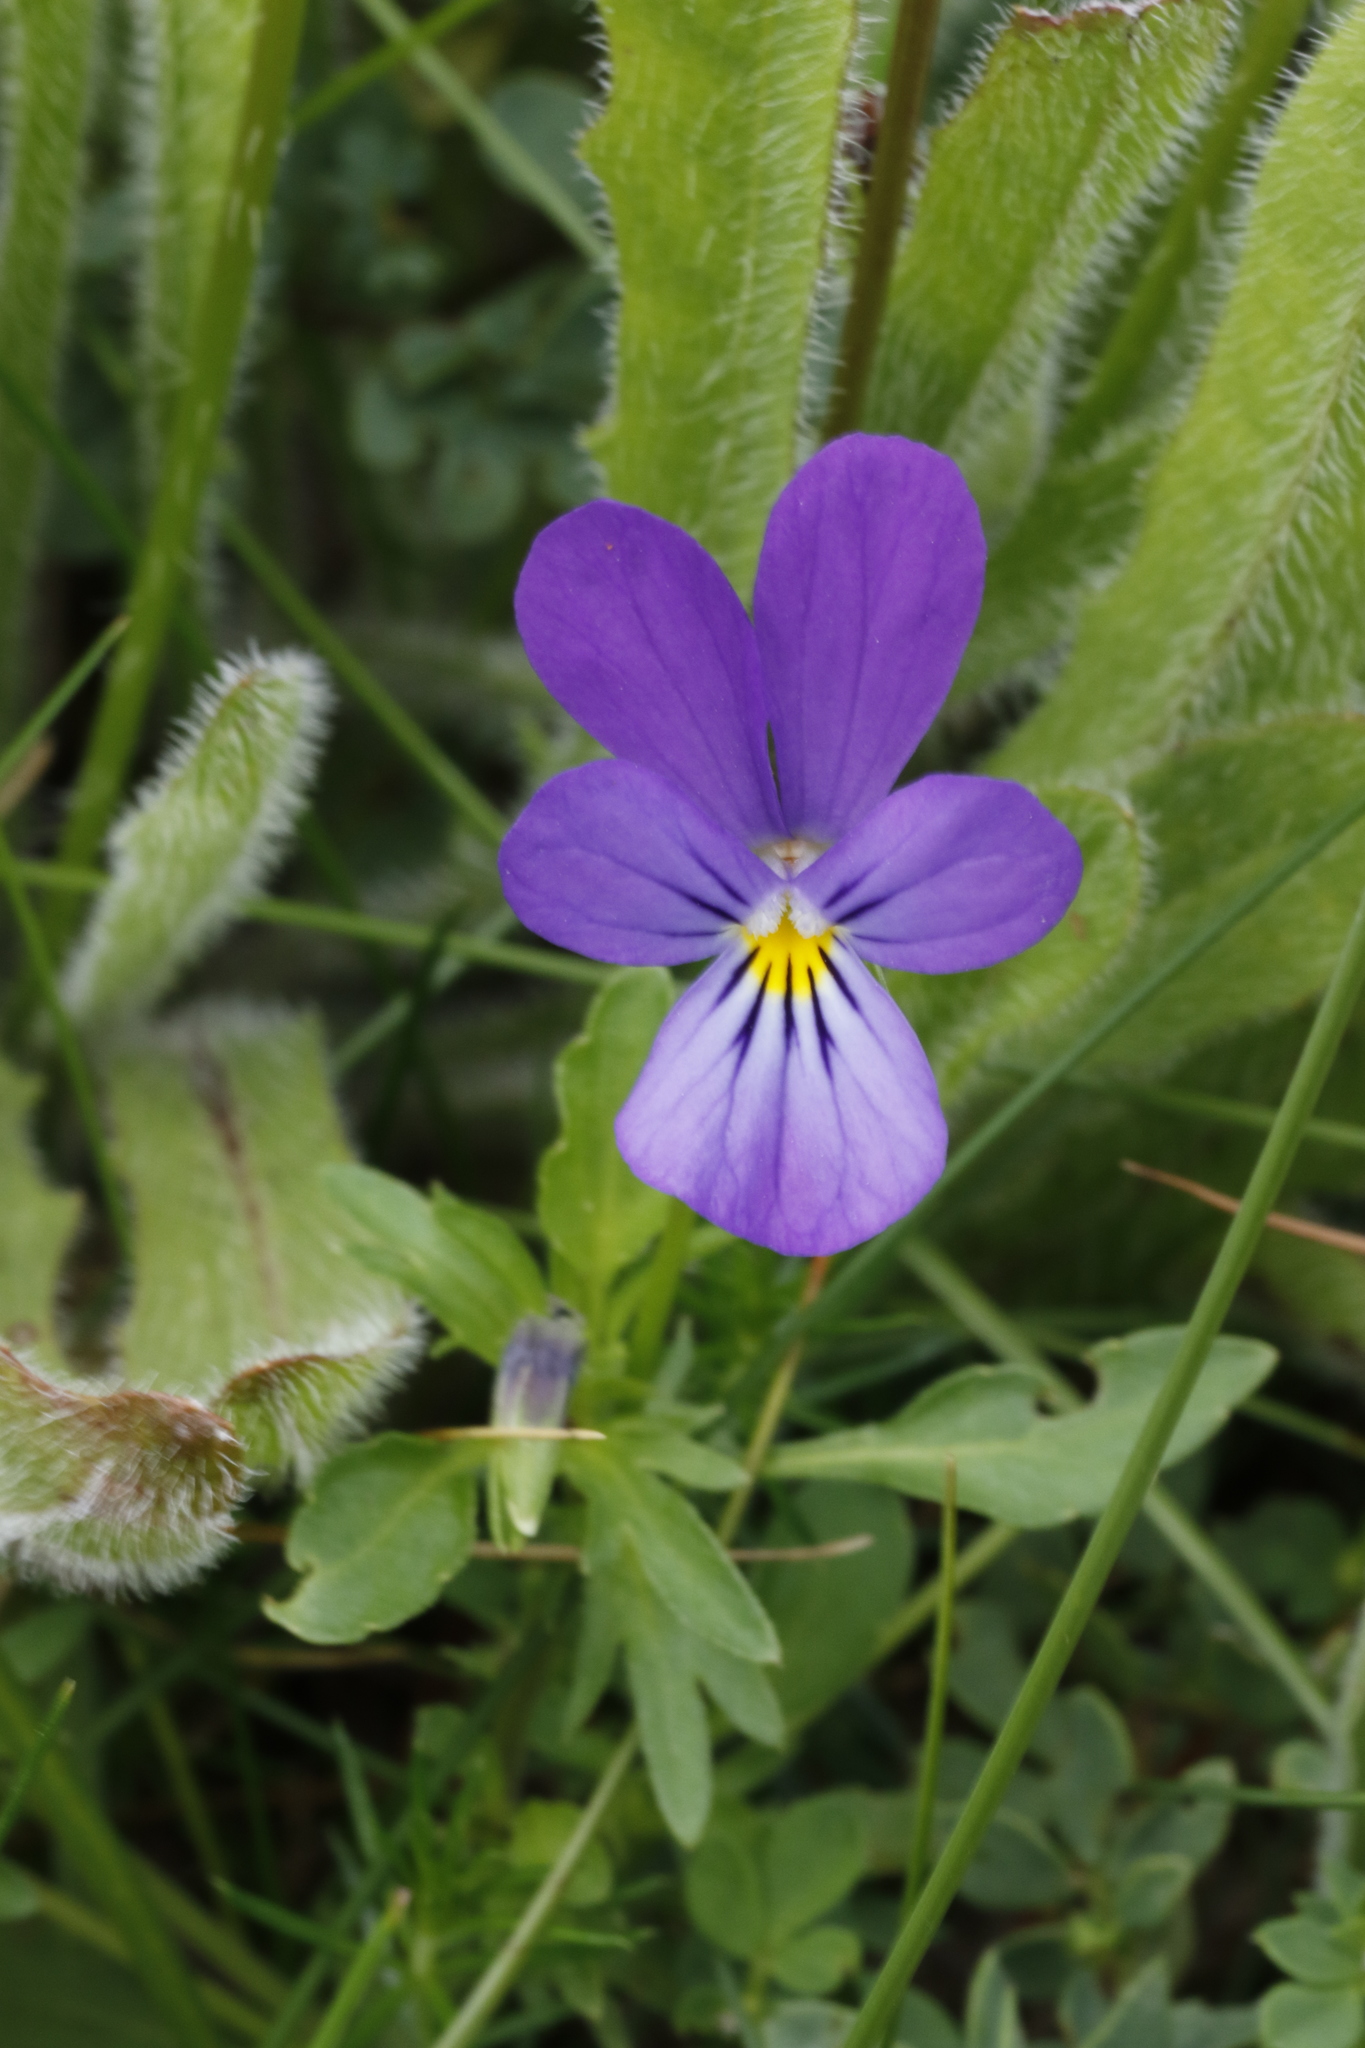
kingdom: Plantae
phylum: Tracheophyta
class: Magnoliopsida
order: Malpighiales
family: Violaceae
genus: Viola
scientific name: Viola tricolor
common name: Pansy
